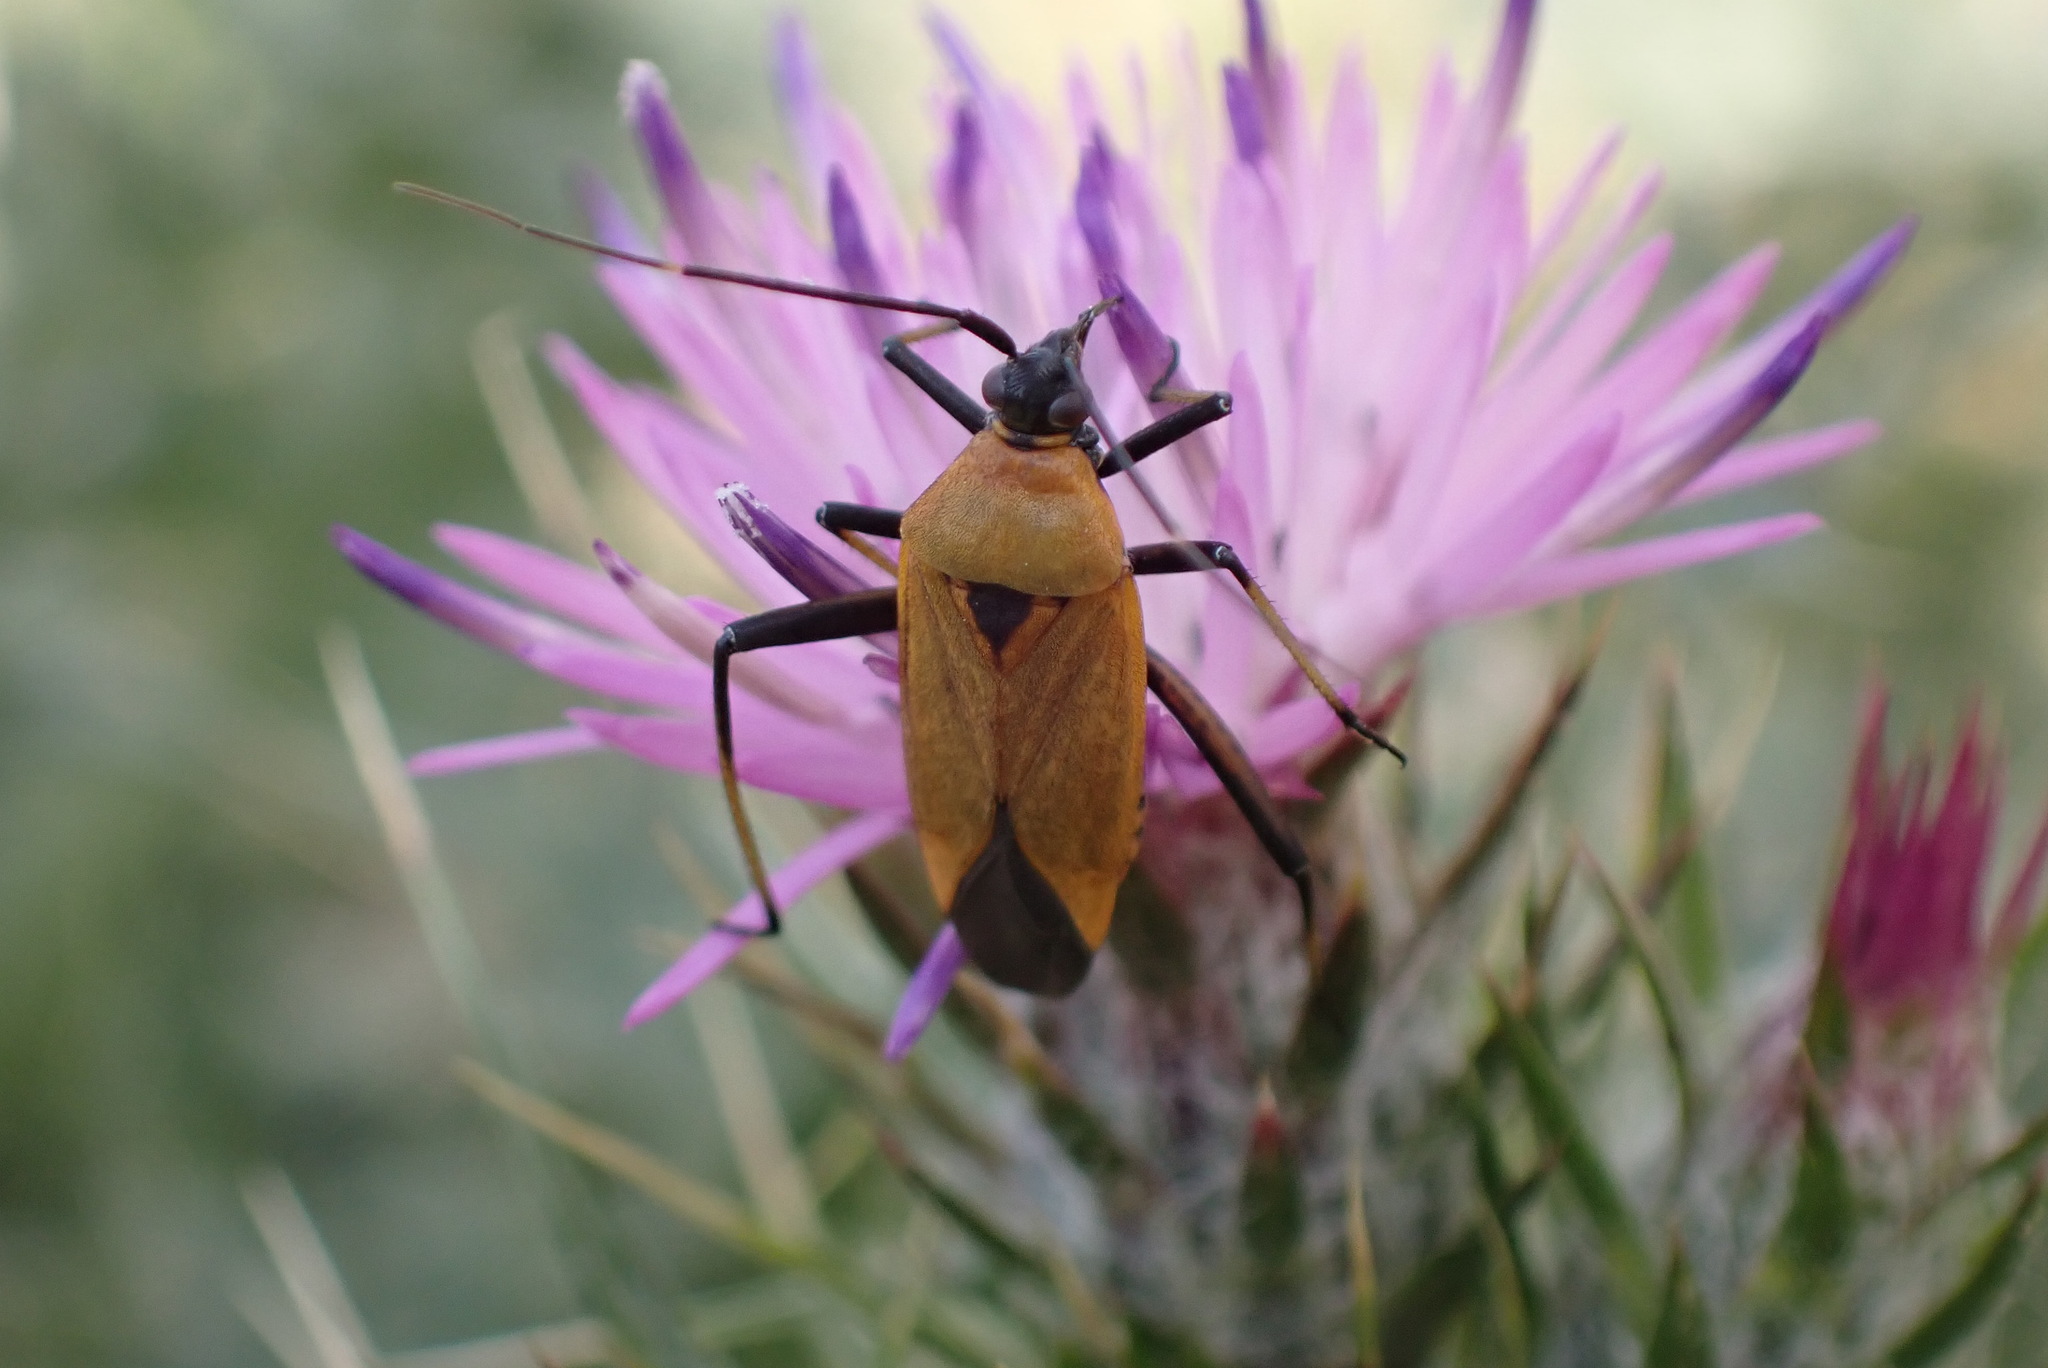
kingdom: Animalia
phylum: Arthropoda
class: Insecta
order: Hemiptera
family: Miridae
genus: Calocoris
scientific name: Calocoris nemoralis
